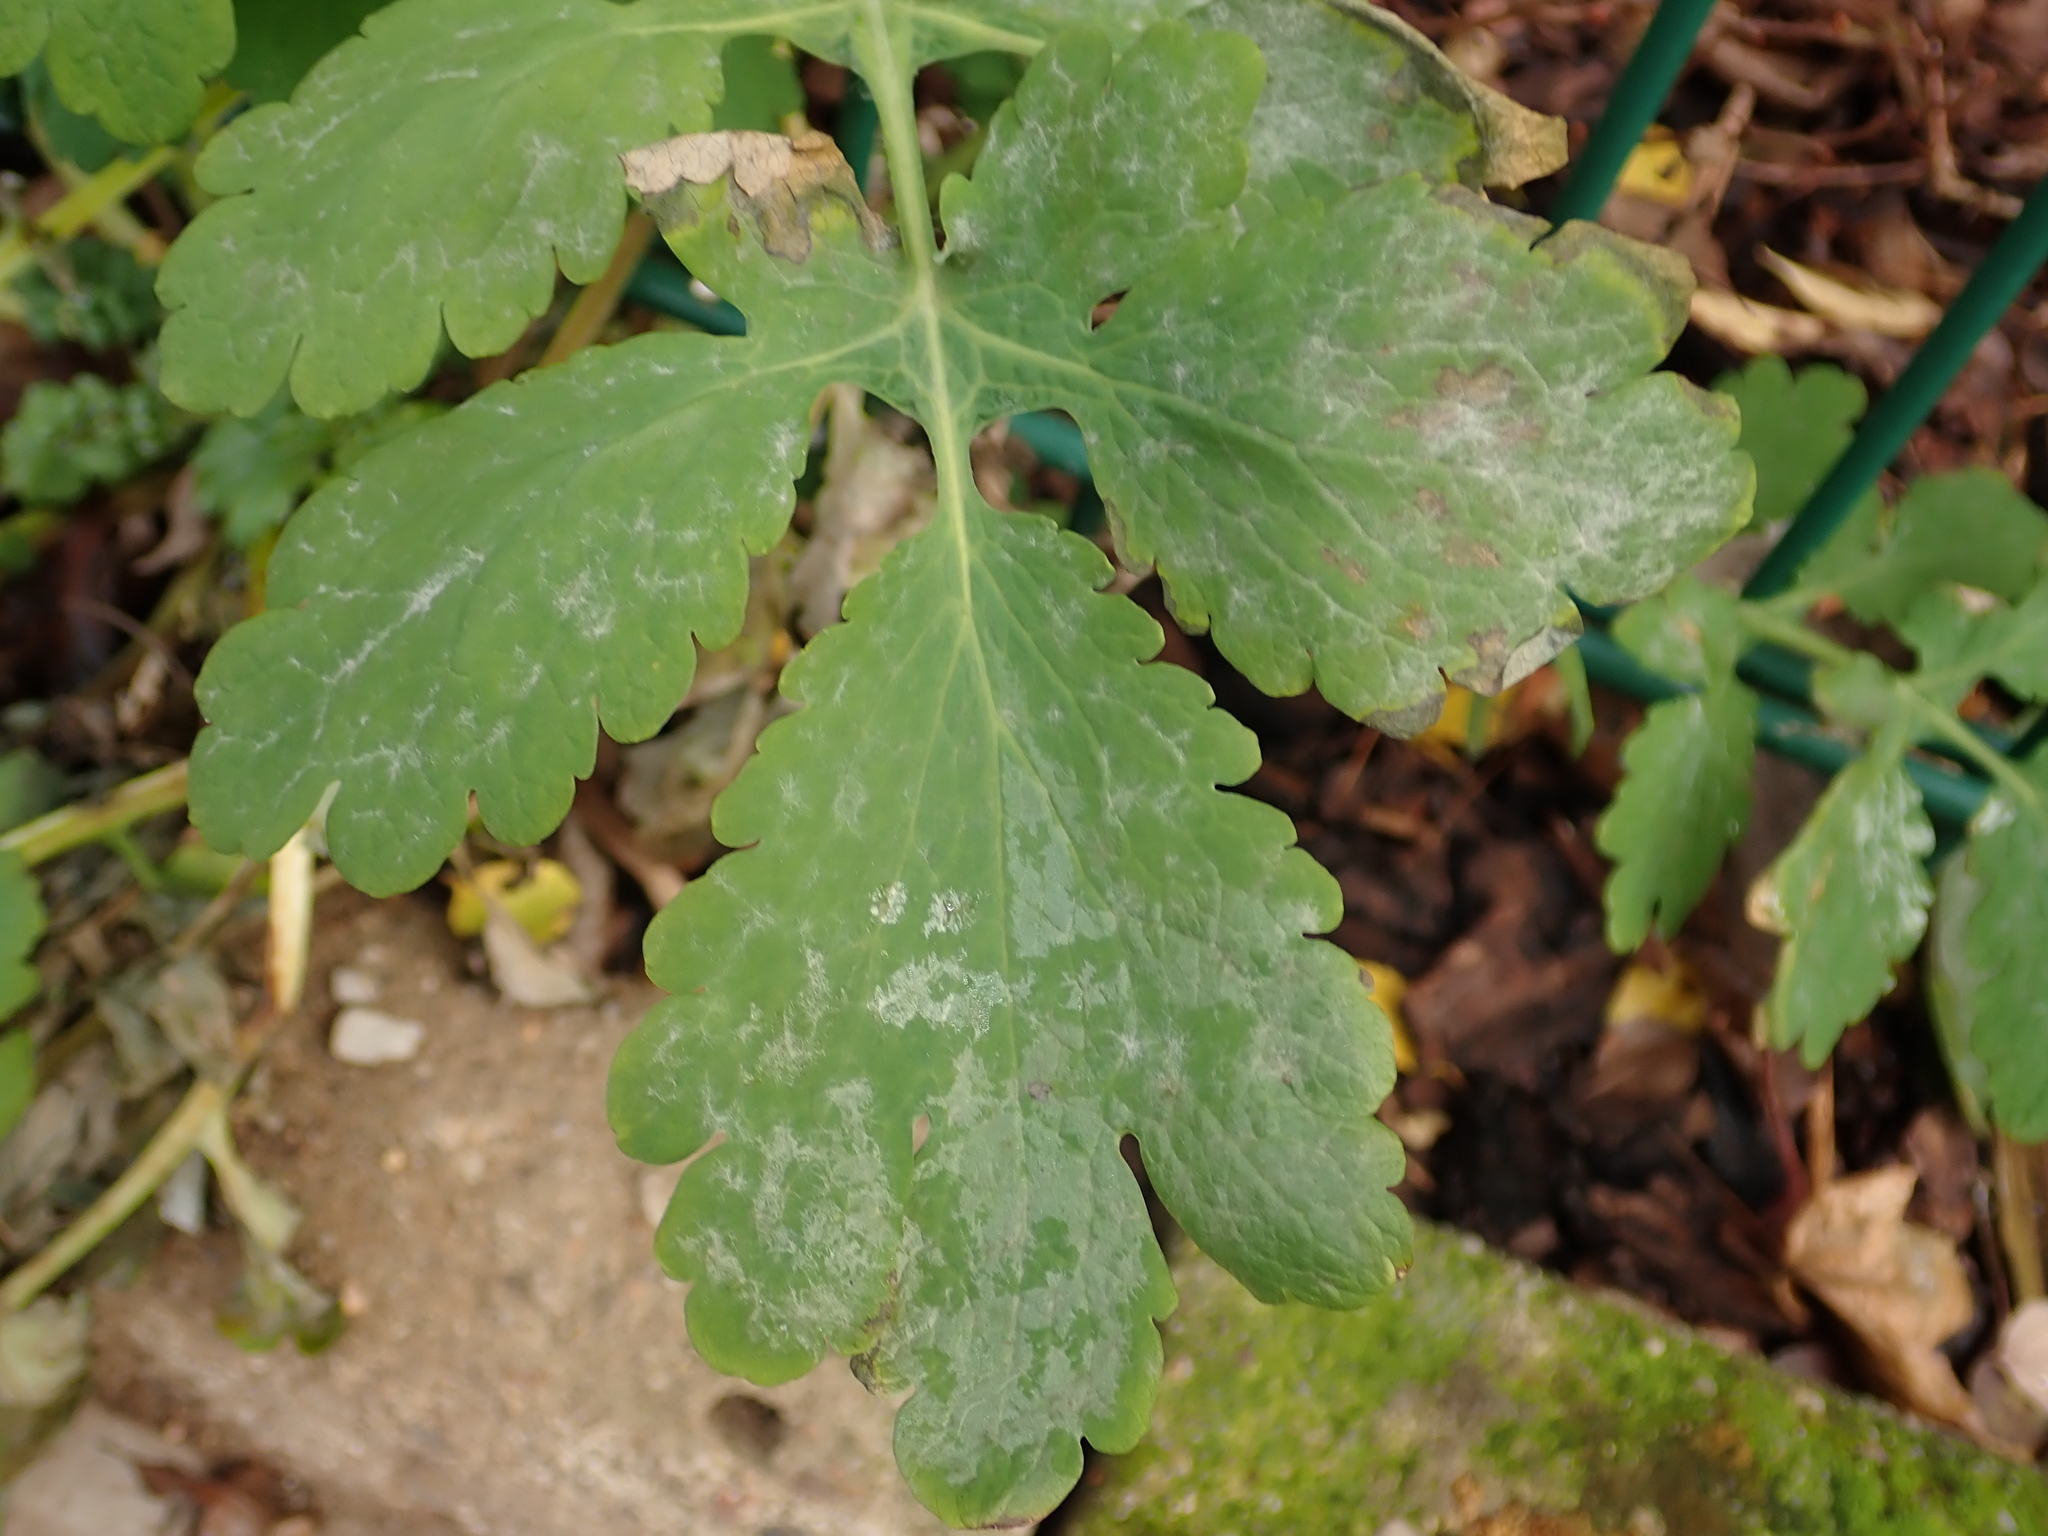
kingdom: Plantae
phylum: Tracheophyta
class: Magnoliopsida
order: Ranunculales
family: Papaveraceae
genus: Chelidonium
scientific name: Chelidonium majus
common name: Greater celandine
